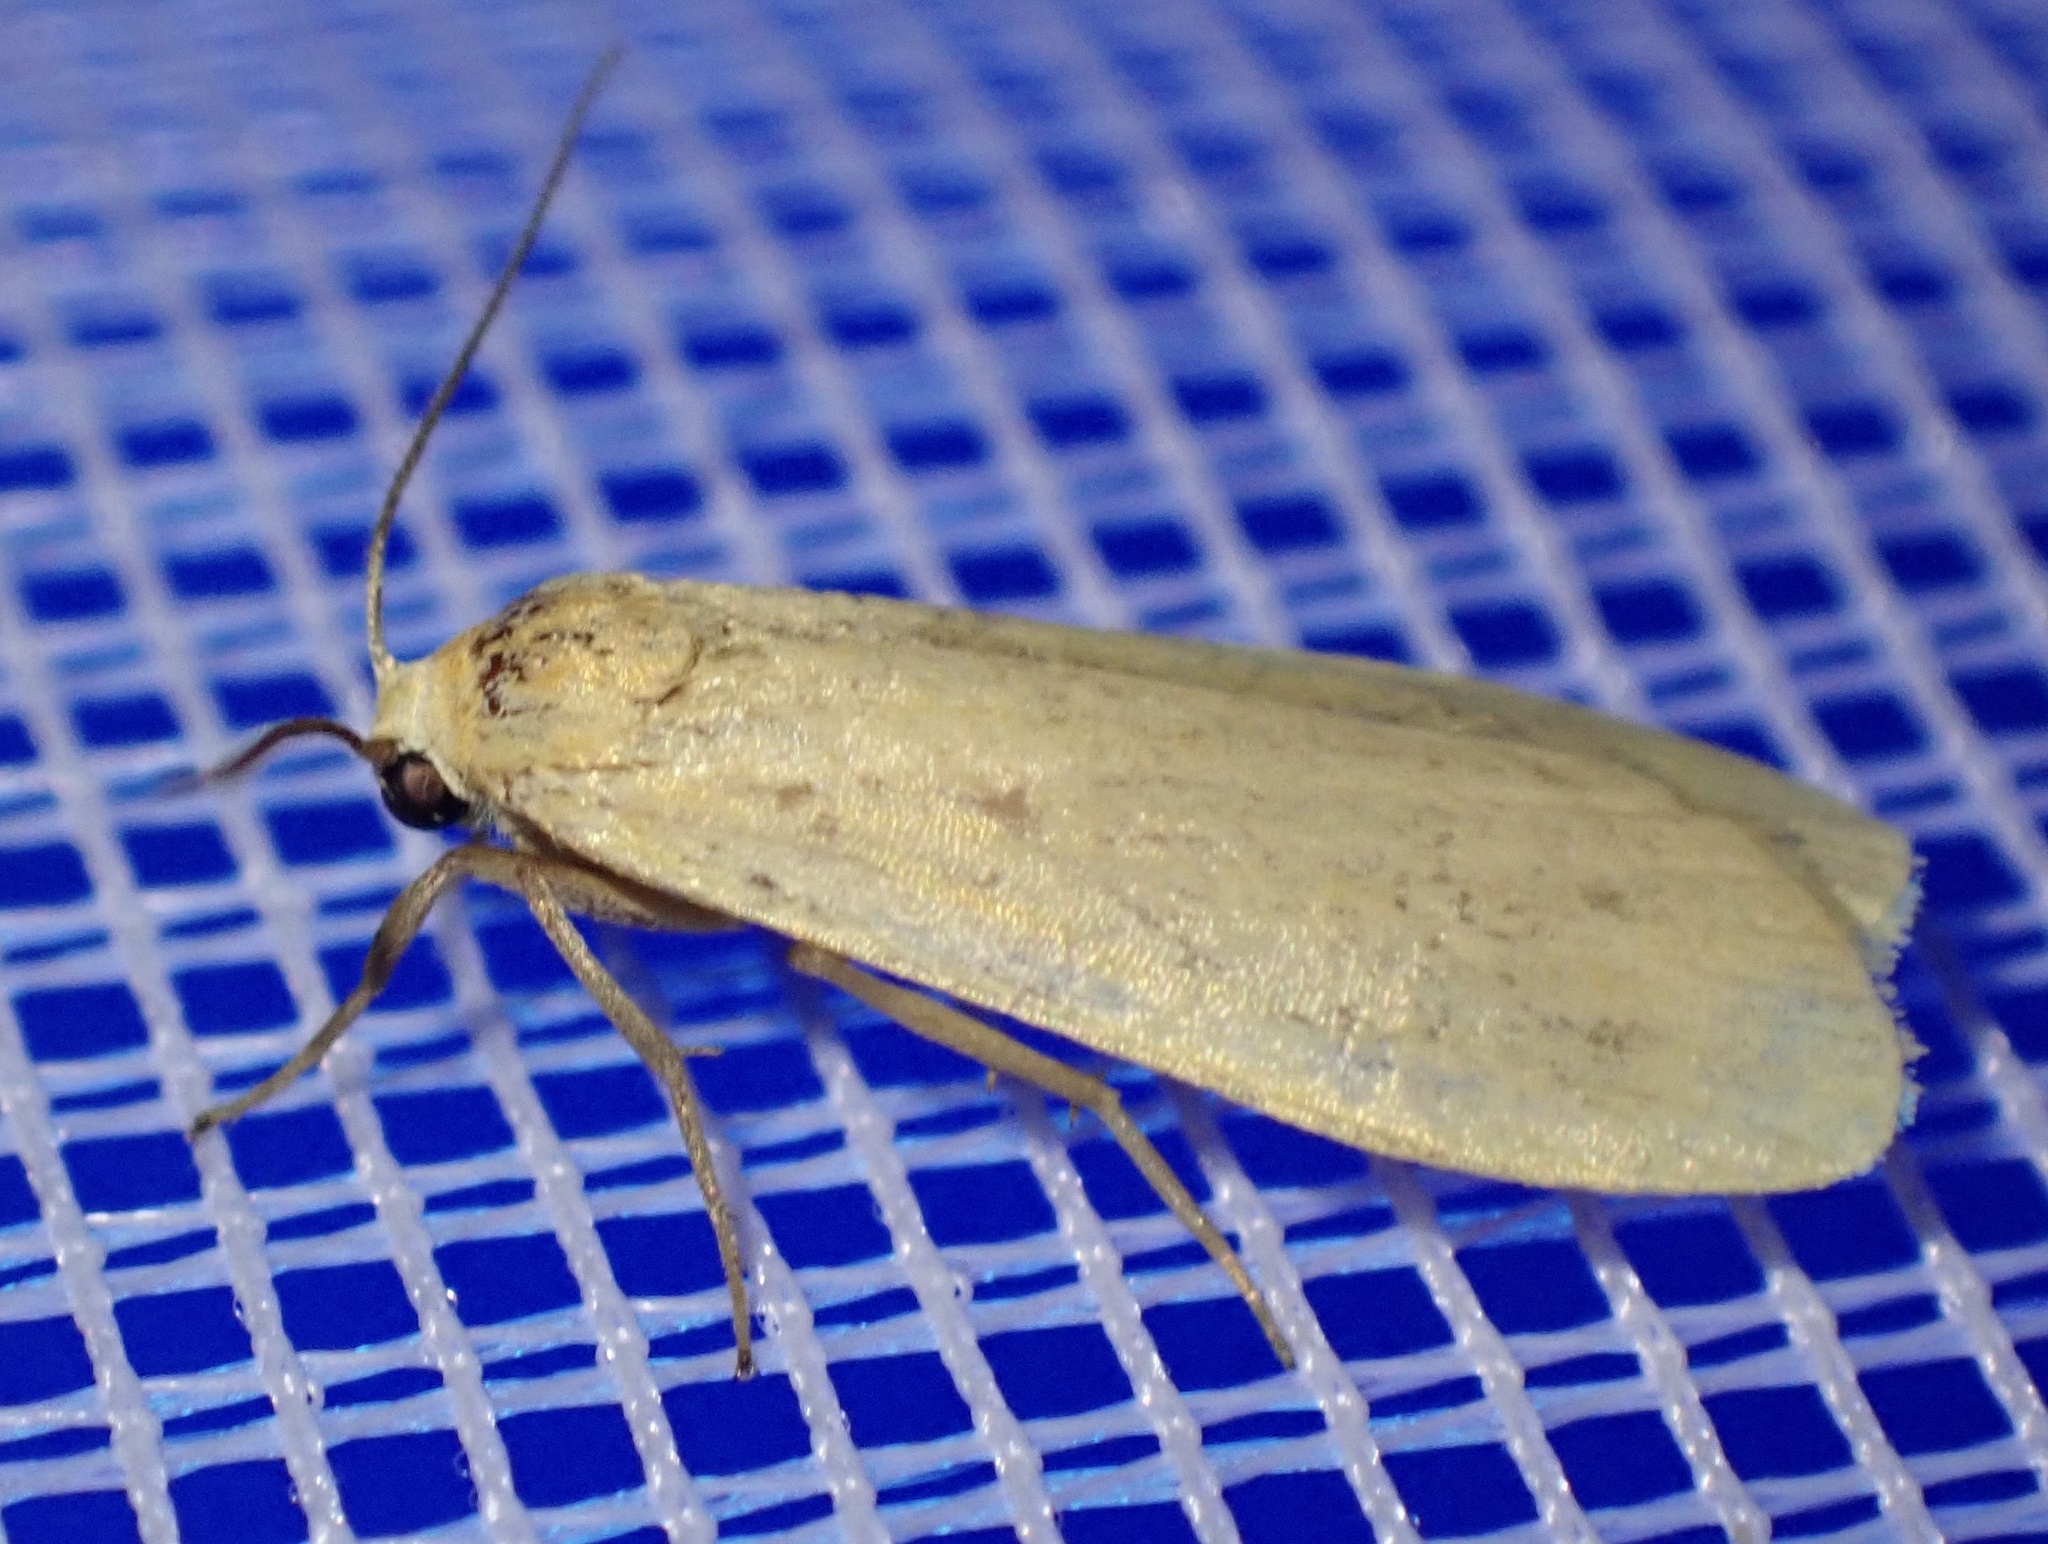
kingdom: Animalia
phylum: Arthropoda
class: Insecta
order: Lepidoptera
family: Erebidae
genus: Wittia
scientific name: Wittia sororcula
